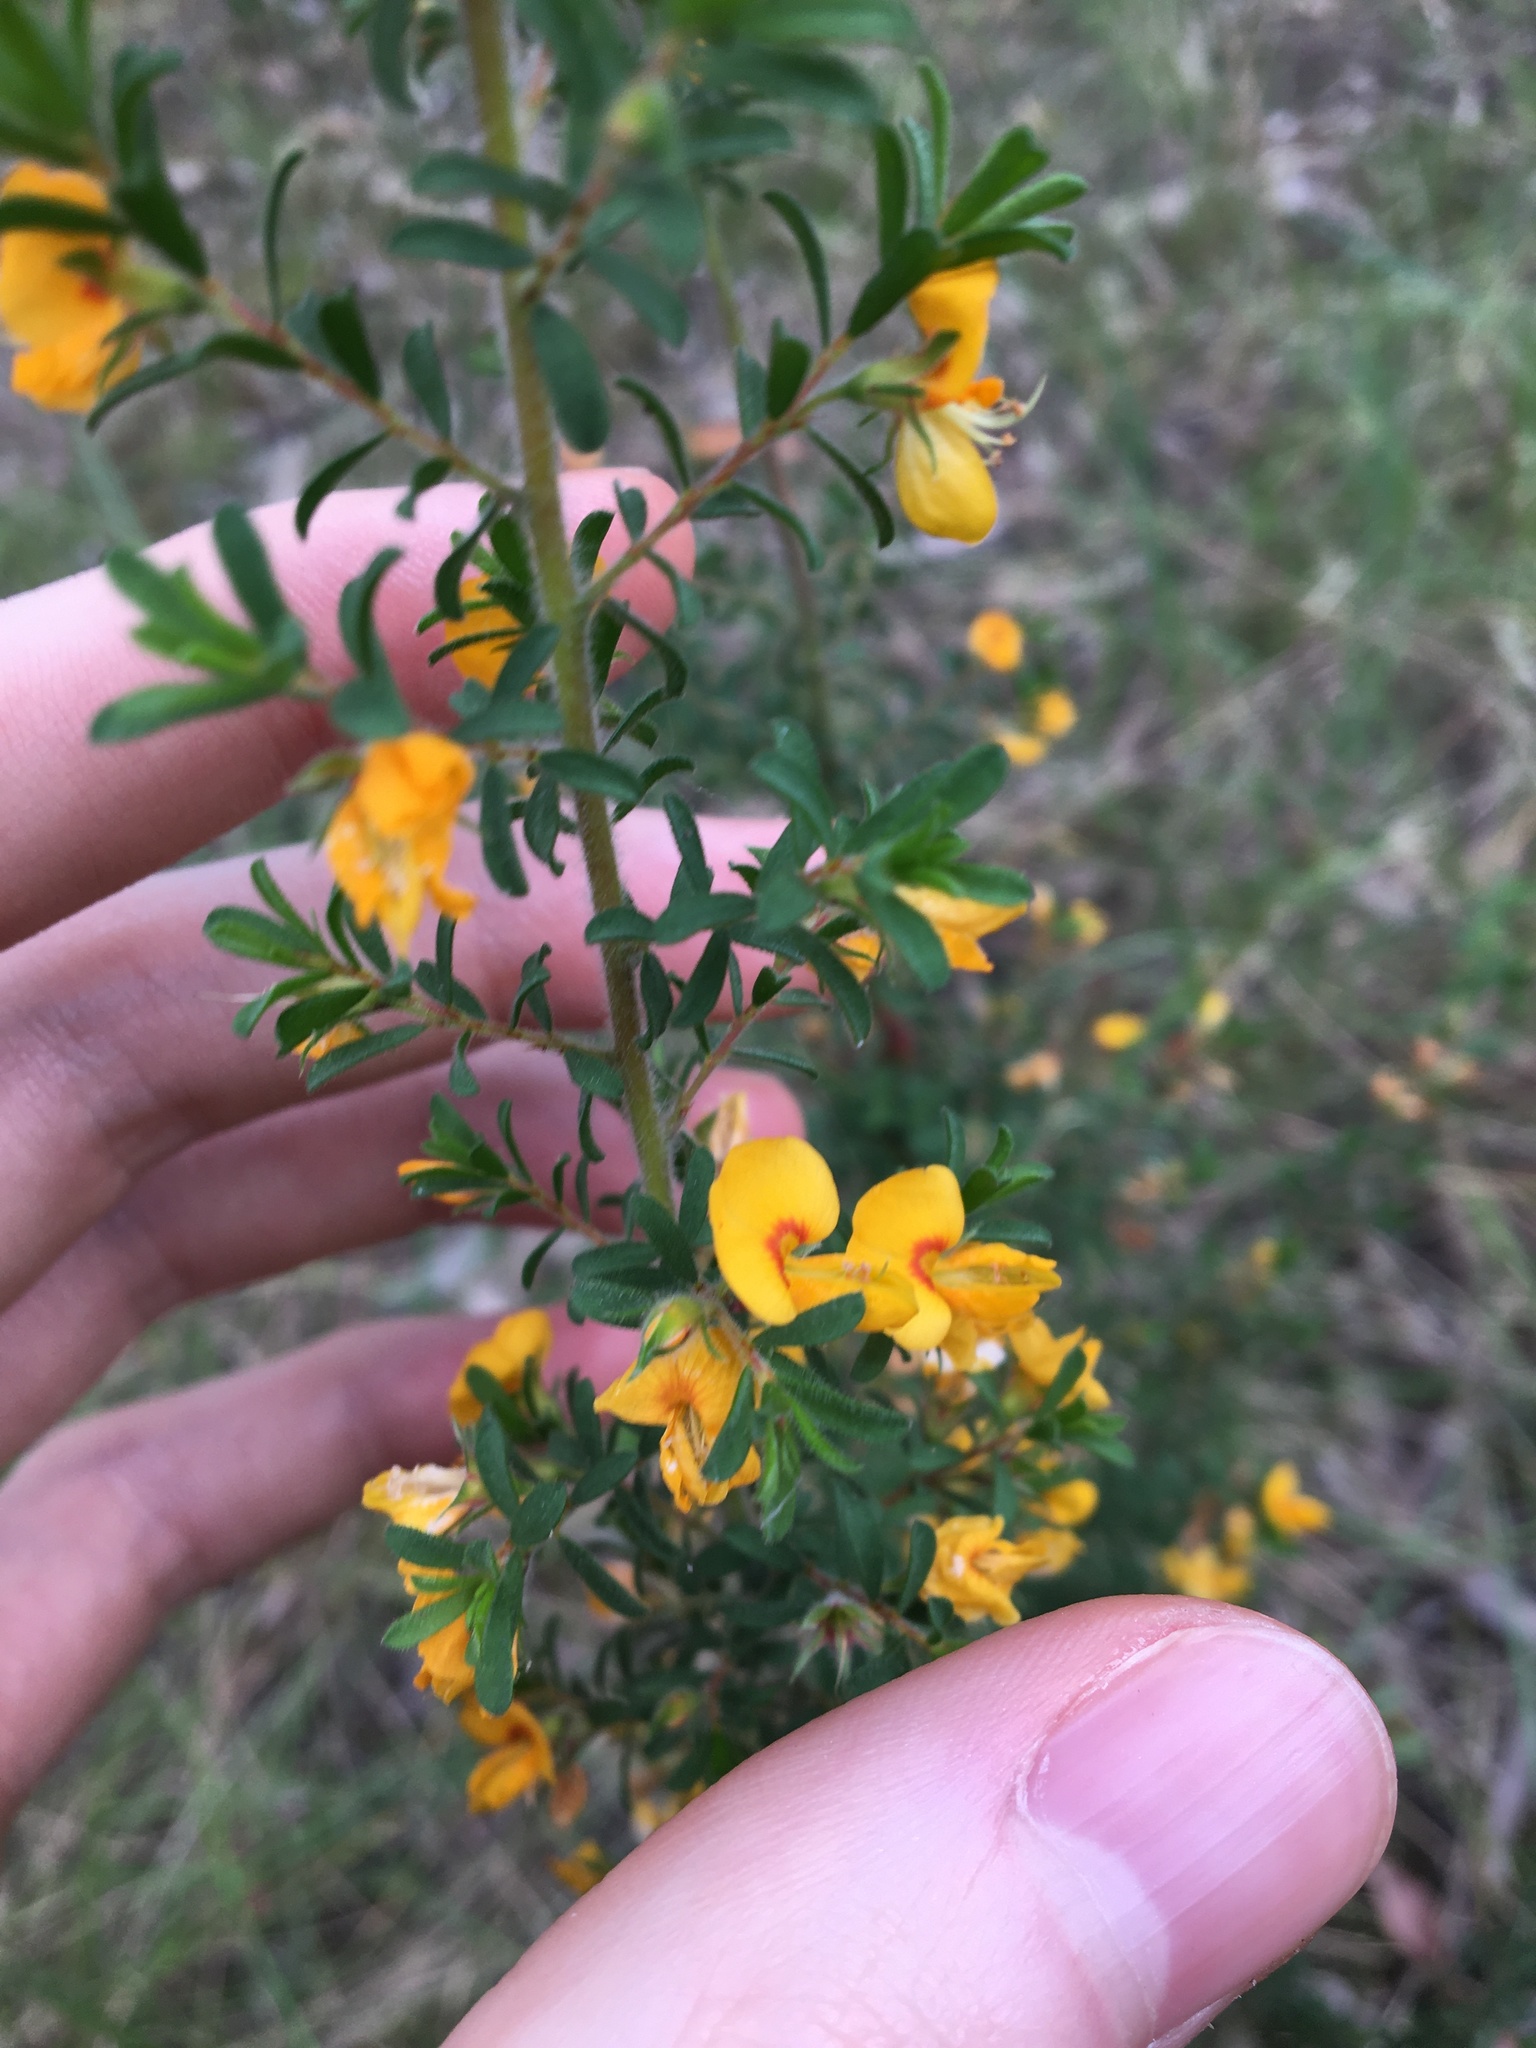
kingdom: Plantae
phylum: Tracheophyta
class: Magnoliopsida
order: Fabales
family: Fabaceae
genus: Pultenaea
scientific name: Pultenaea villosa
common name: Bronze bush-pea
